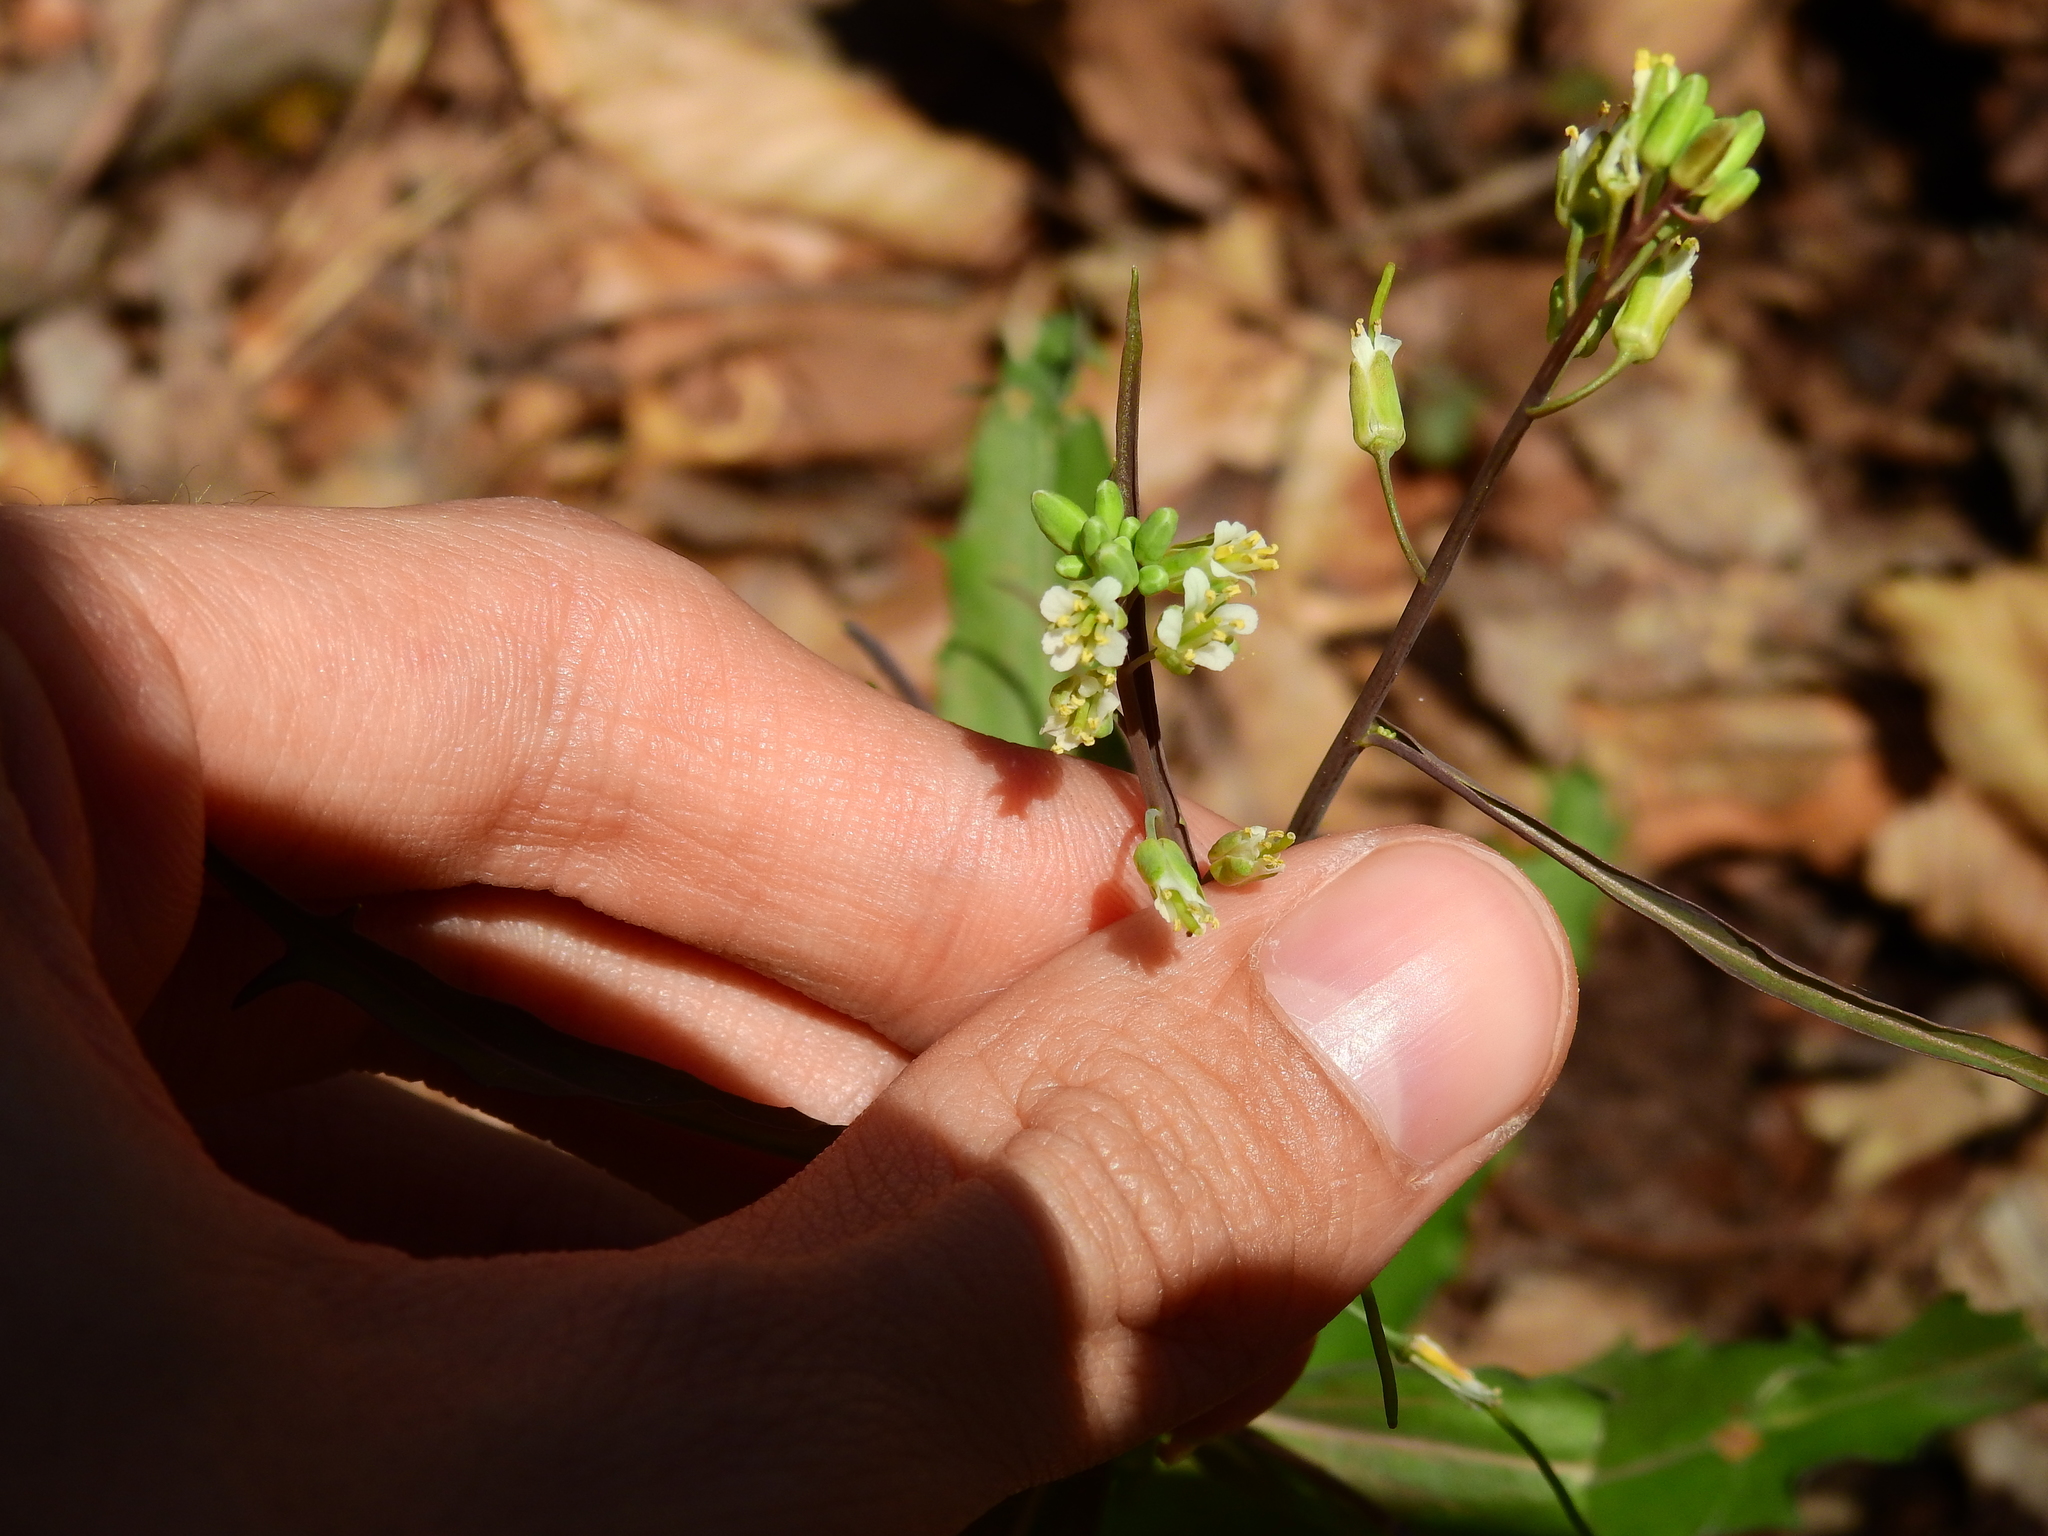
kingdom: Plantae
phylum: Tracheophyta
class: Magnoliopsida
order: Brassicales
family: Brassicaceae
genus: Borodinia
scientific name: Borodinia laevigata
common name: Smooth rockcress
